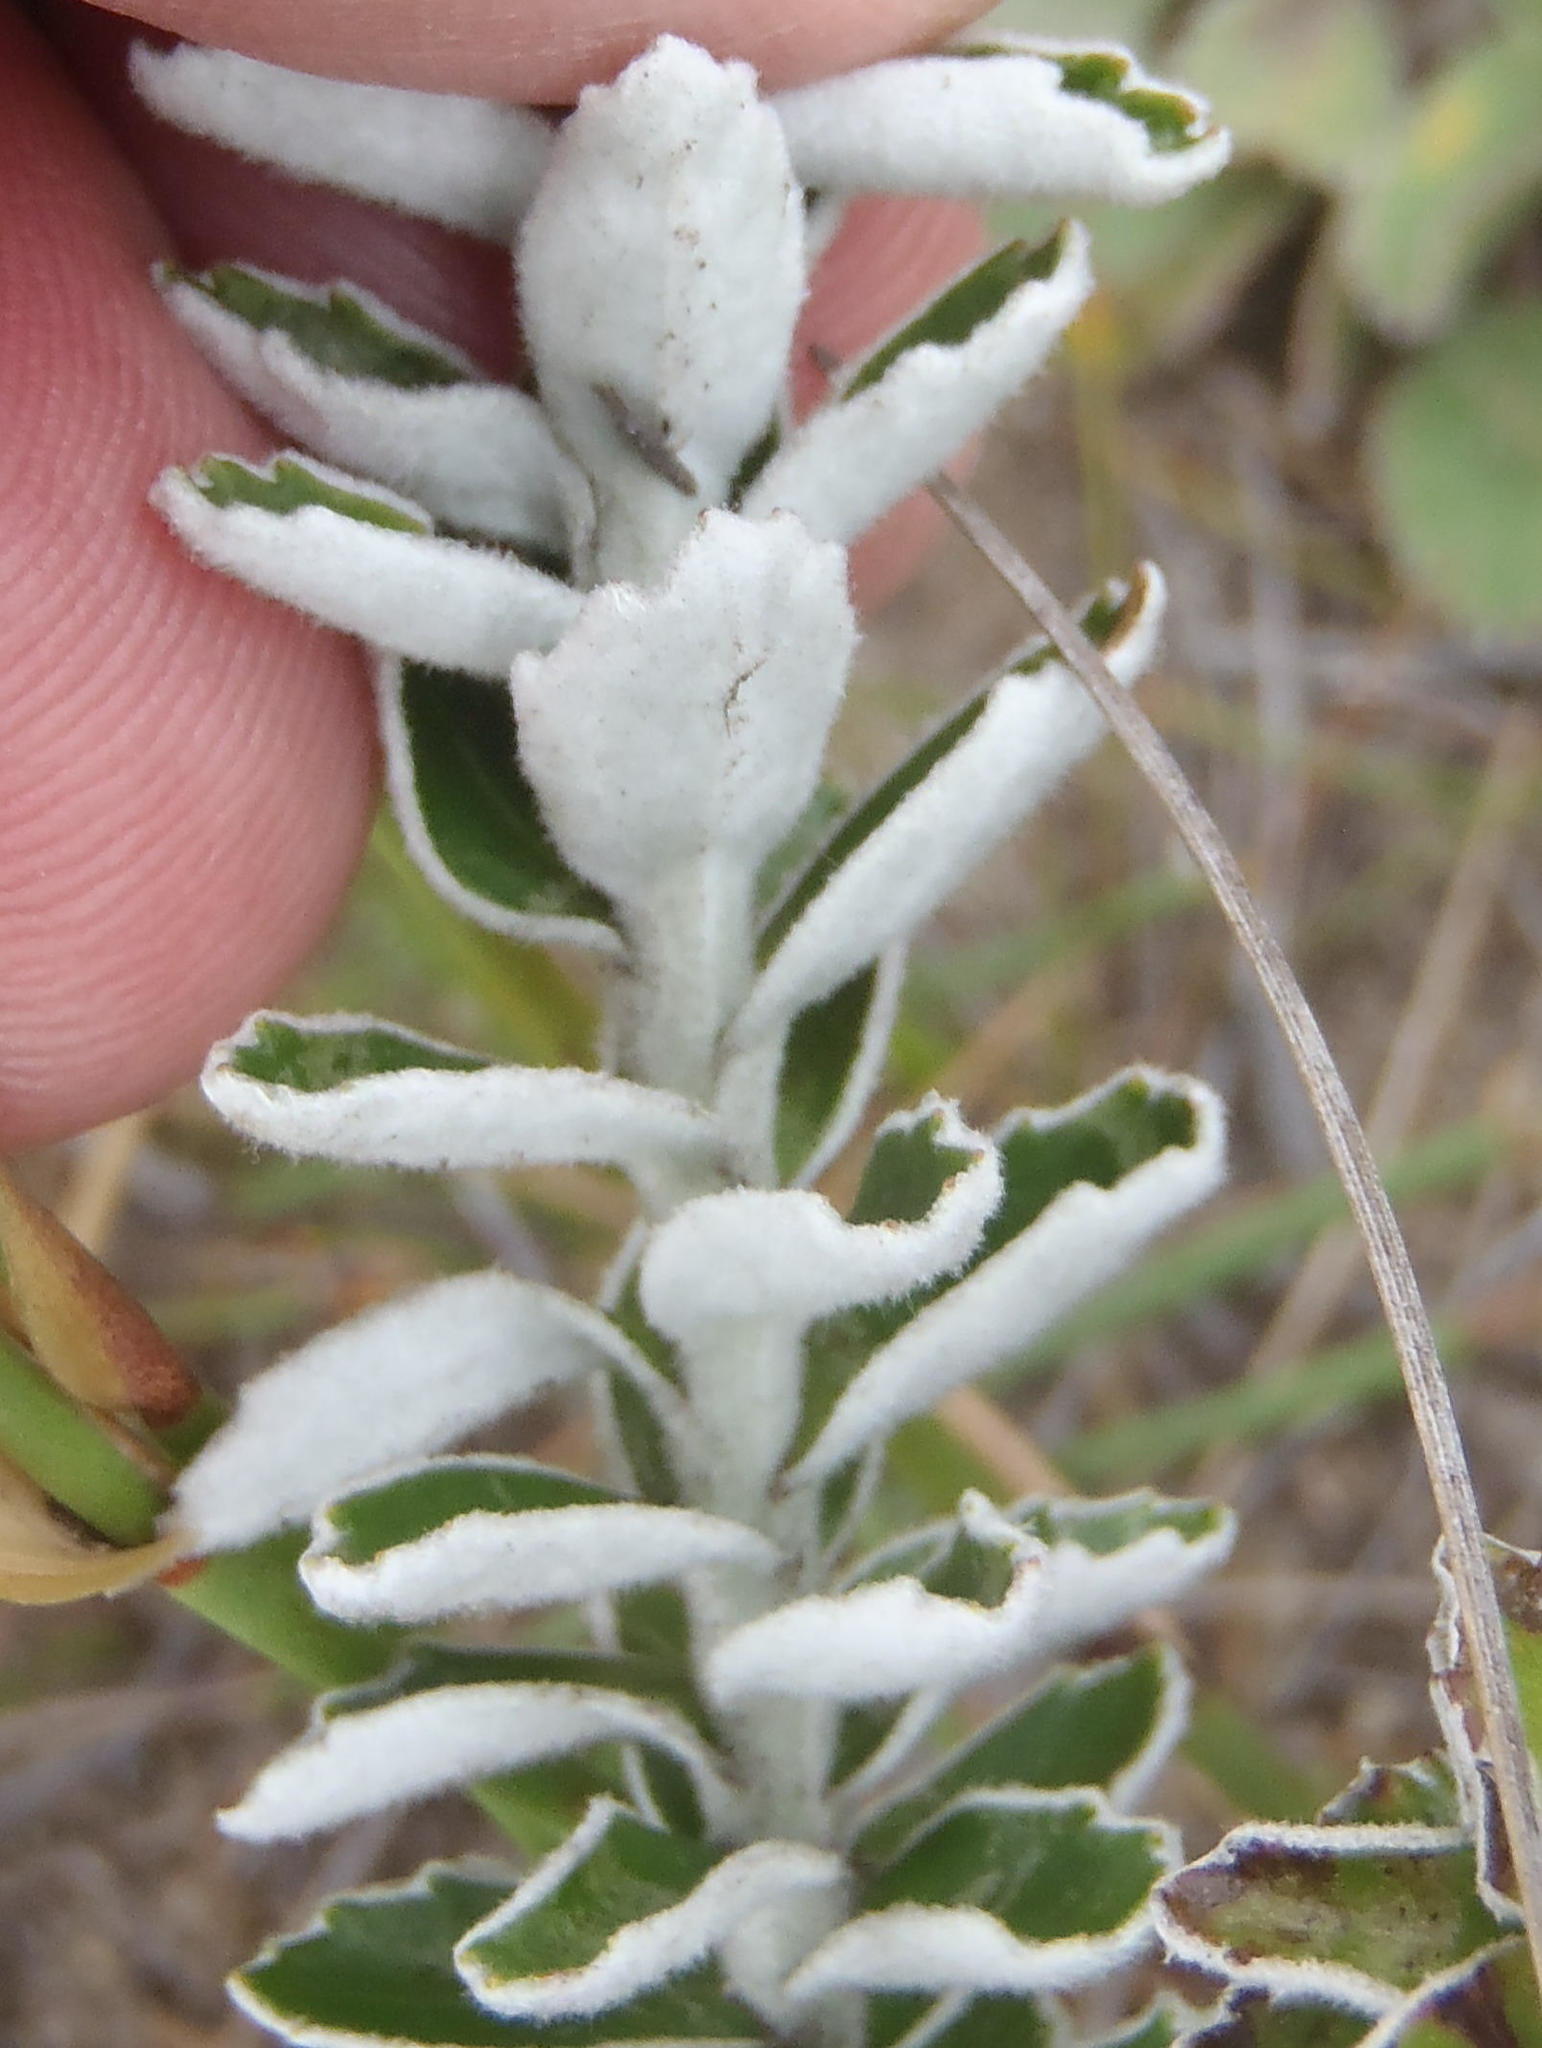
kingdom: Plantae
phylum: Tracheophyta
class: Magnoliopsida
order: Asterales
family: Asteraceae
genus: Senecio
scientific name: Senecio pauciflosculosus
